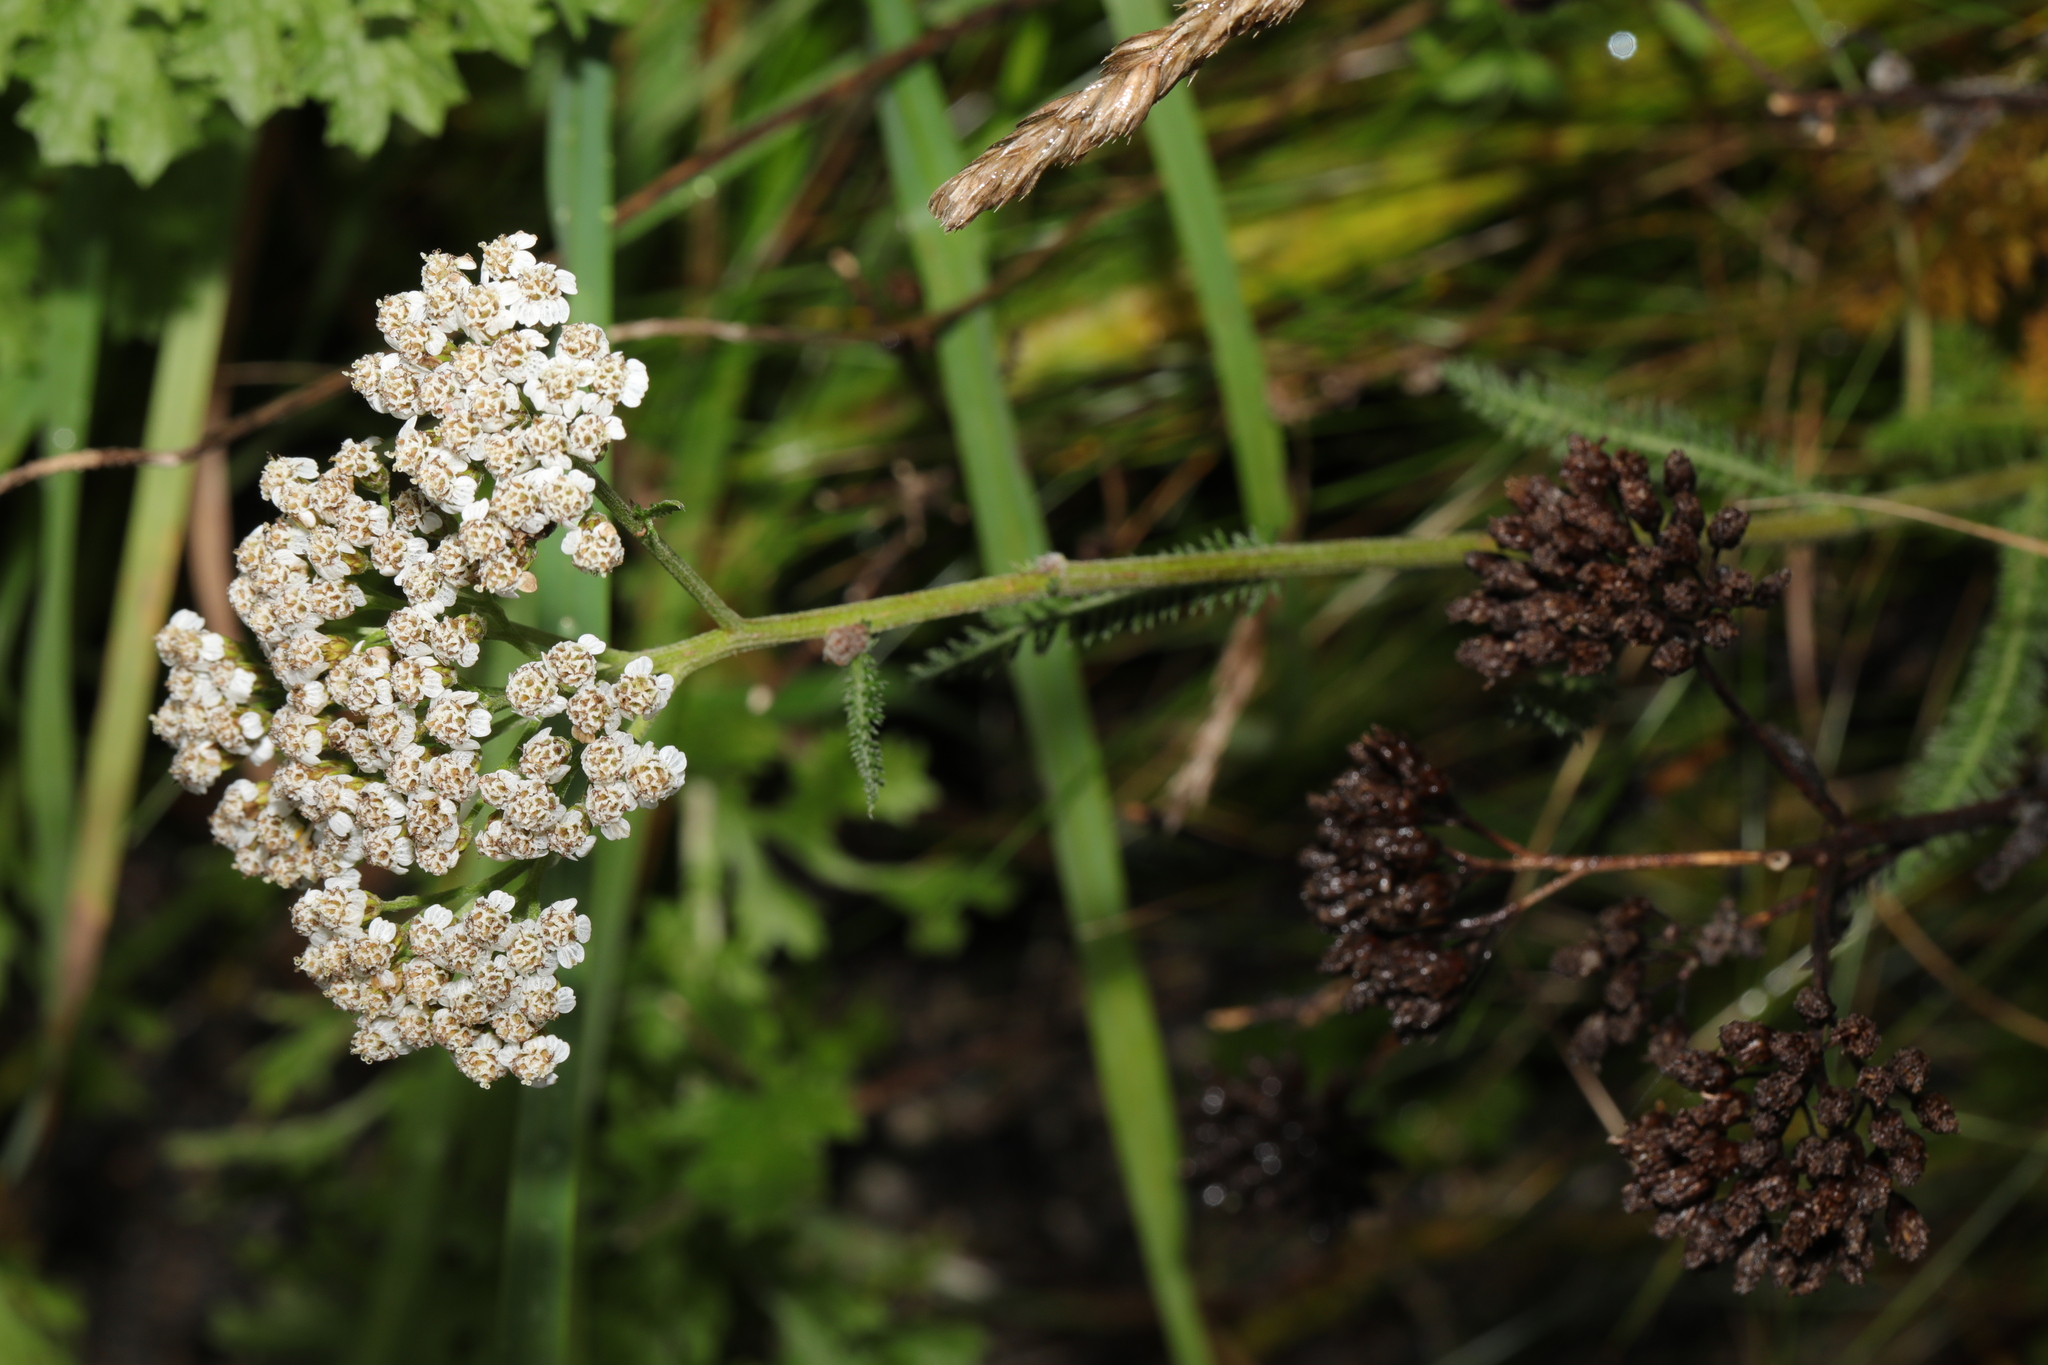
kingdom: Plantae
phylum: Tracheophyta
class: Magnoliopsida
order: Asterales
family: Asteraceae
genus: Achillea
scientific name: Achillea millefolium
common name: Yarrow
